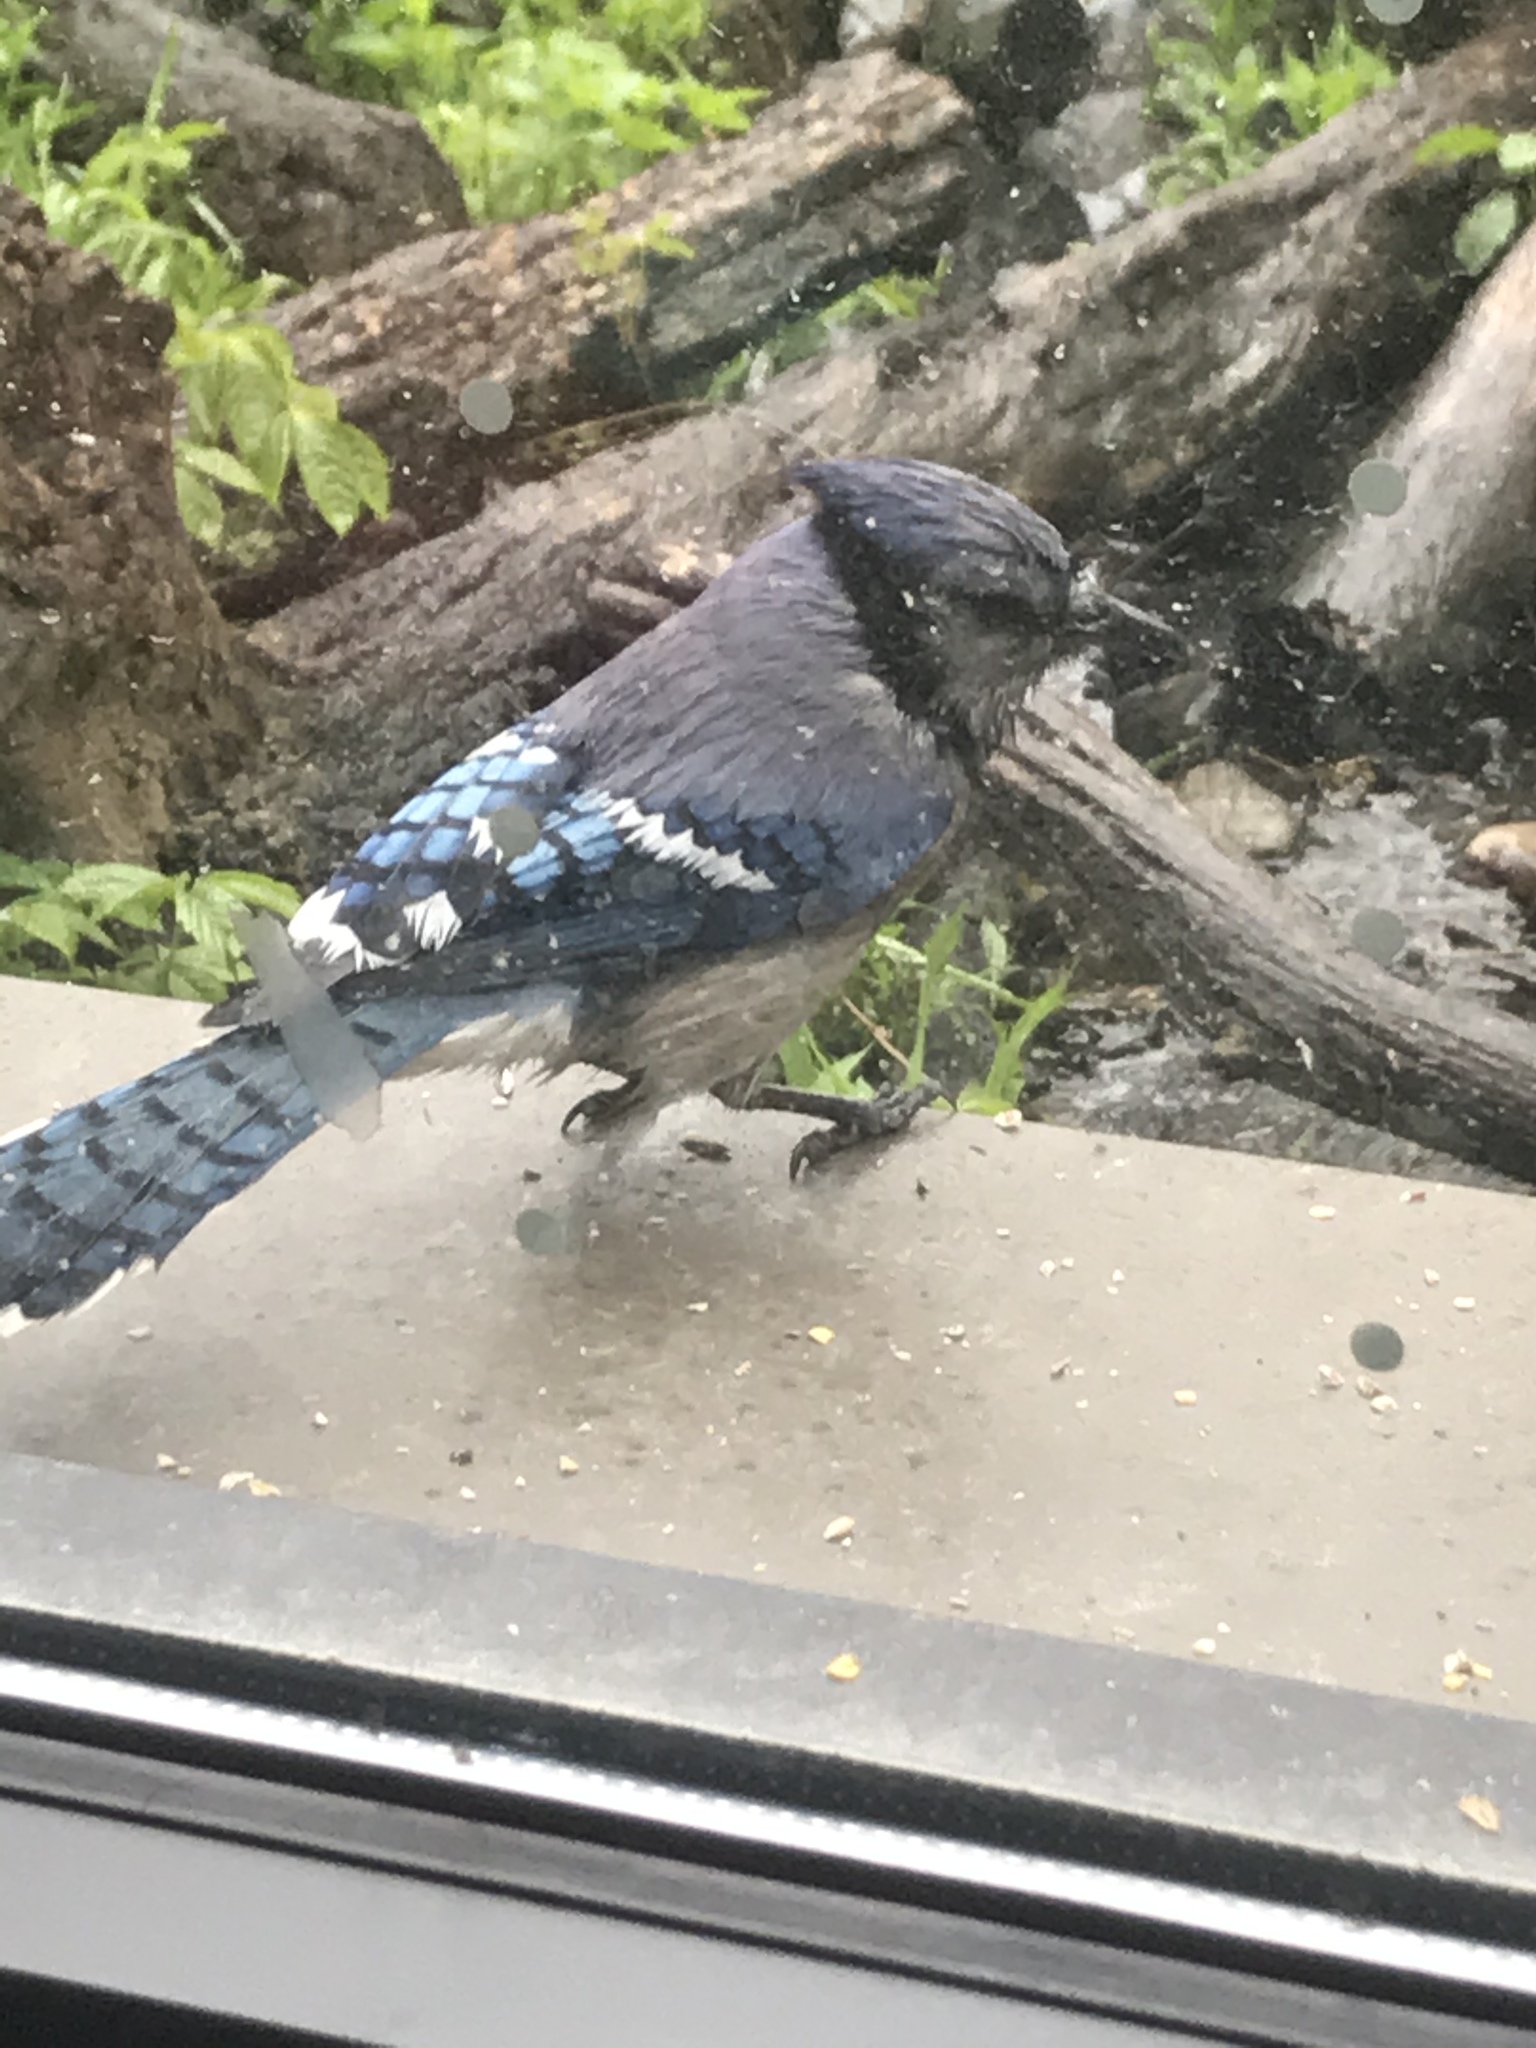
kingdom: Animalia
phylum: Chordata
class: Aves
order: Passeriformes
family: Corvidae
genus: Cyanocitta
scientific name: Cyanocitta cristata
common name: Blue jay
